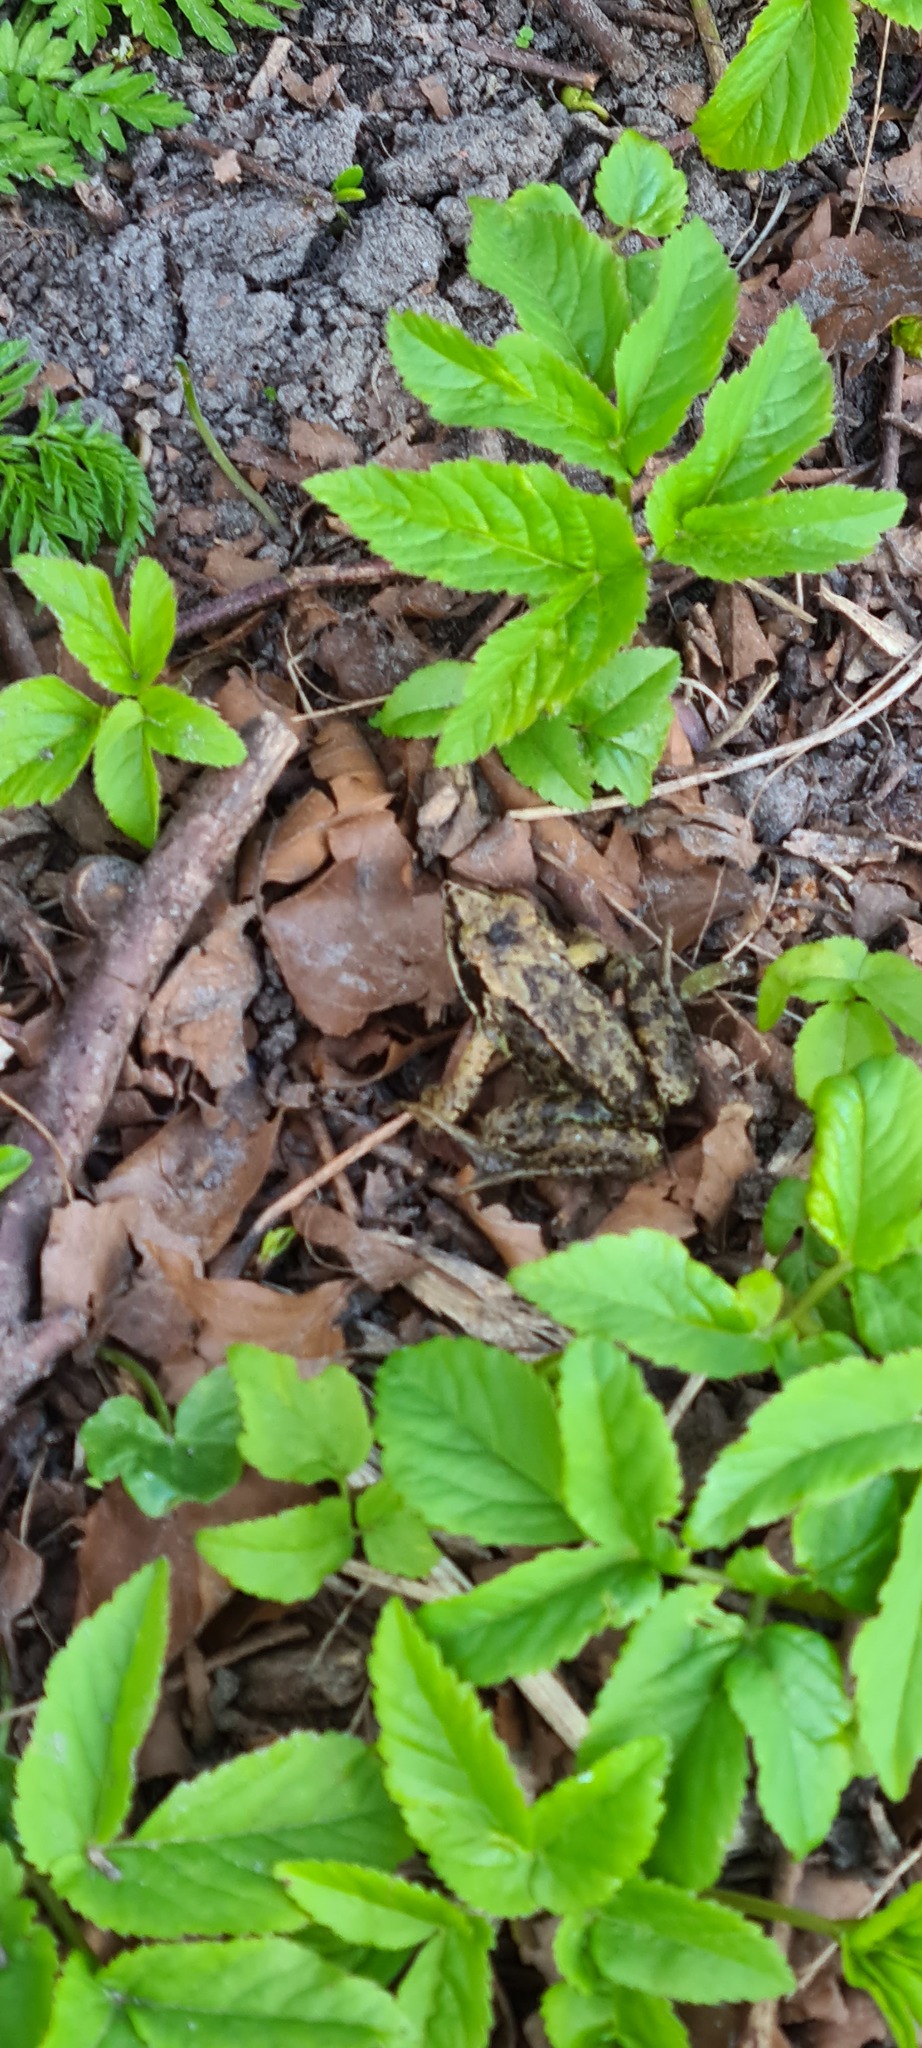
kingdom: Animalia
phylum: Chordata
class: Amphibia
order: Anura
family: Ranidae
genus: Rana
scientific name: Rana temporaria
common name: Common frog
